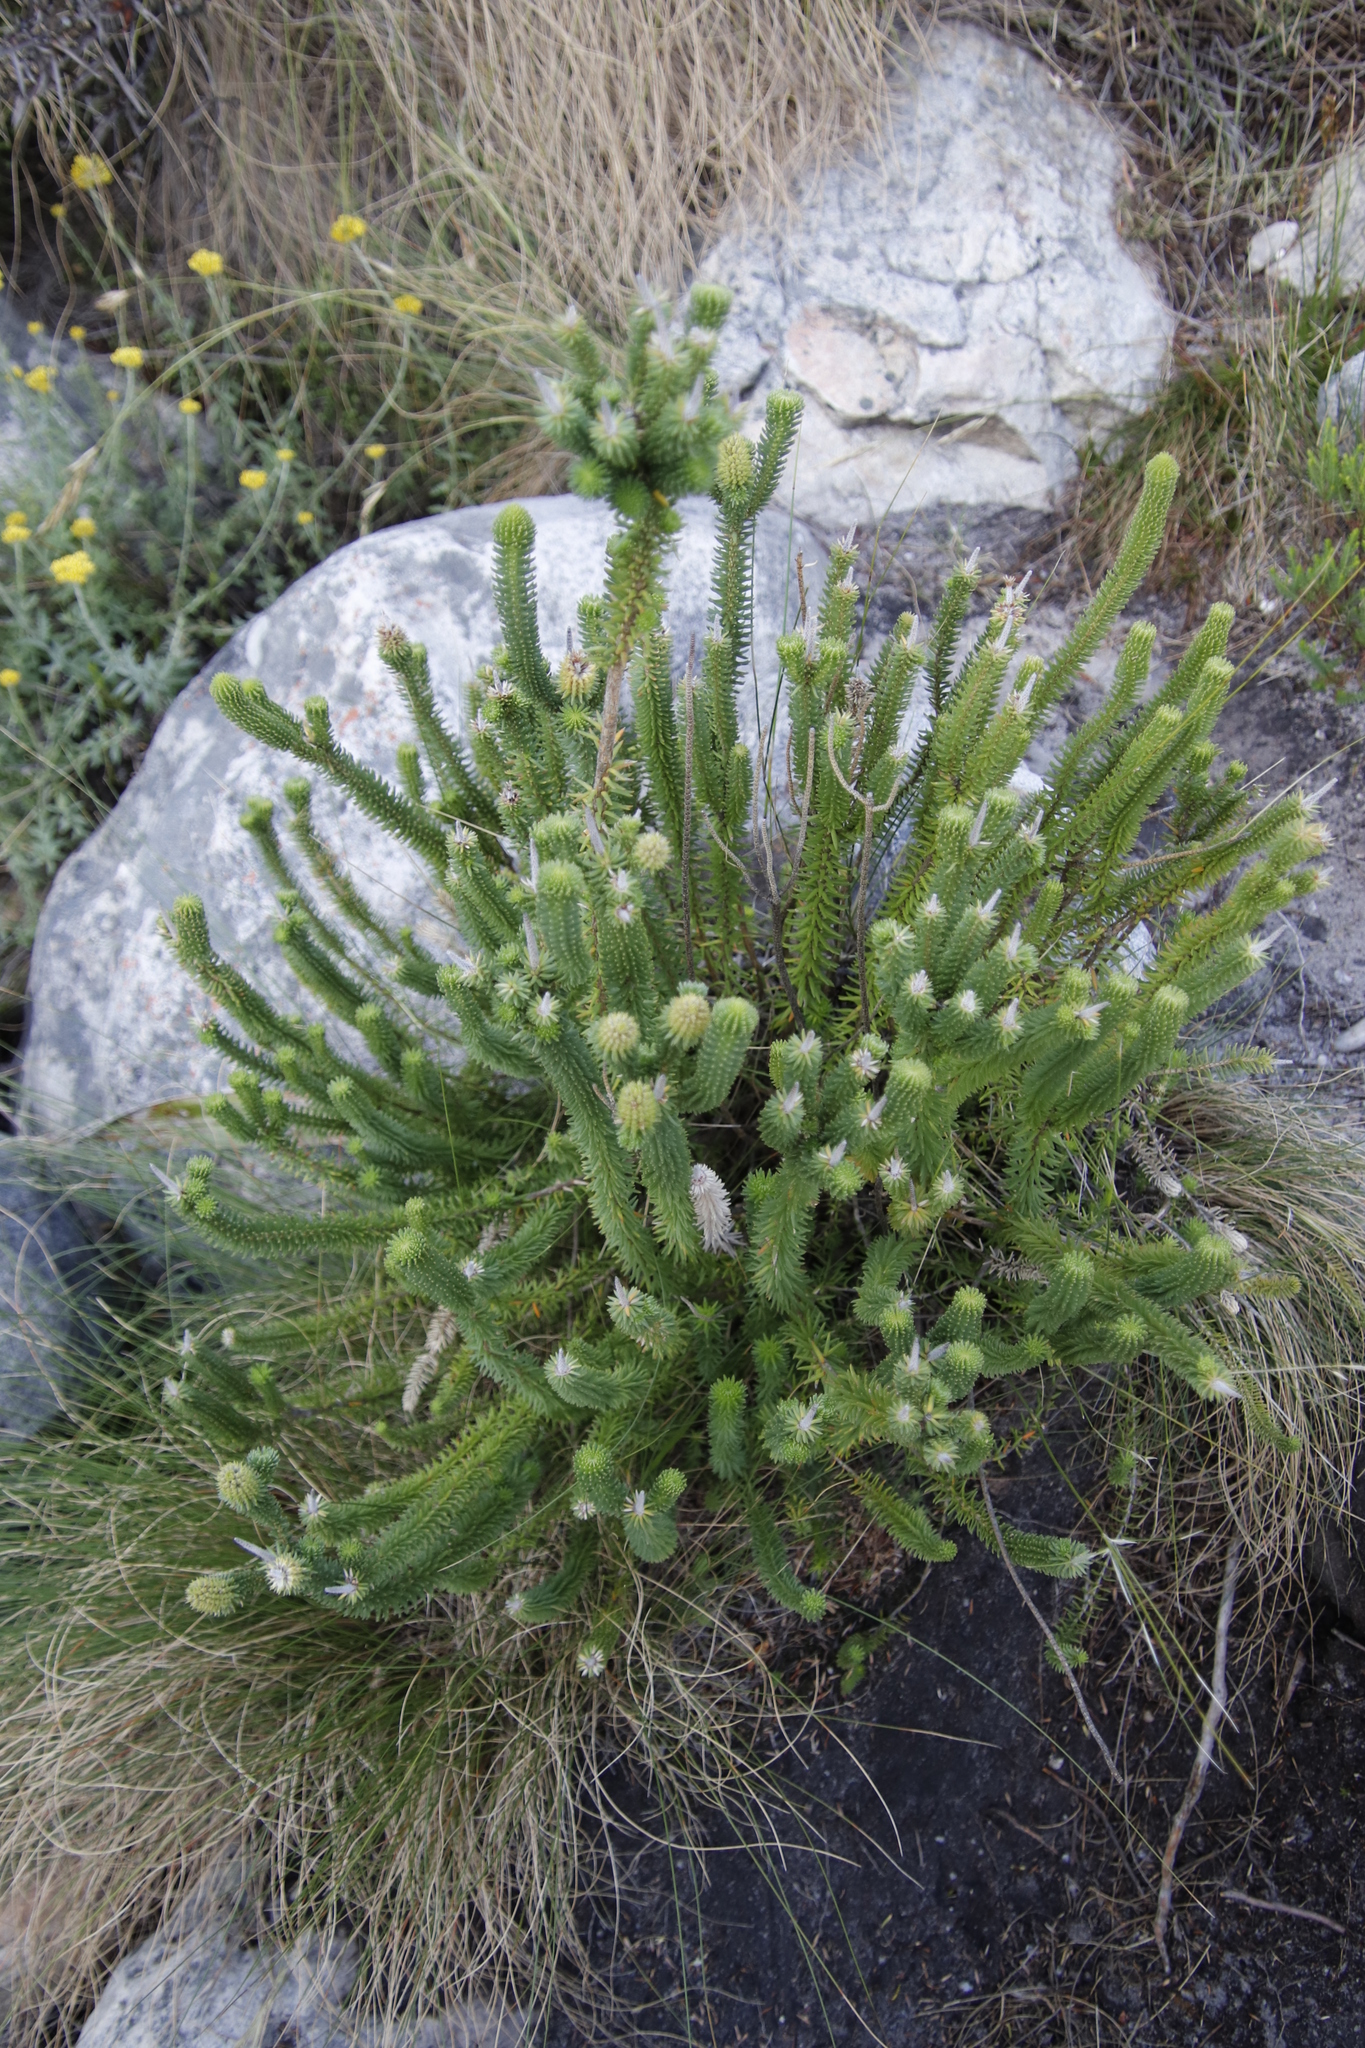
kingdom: Plantae
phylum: Tracheophyta
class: Magnoliopsida
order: Lamiales
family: Stilbaceae
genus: Stilbe
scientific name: Stilbe vestita
